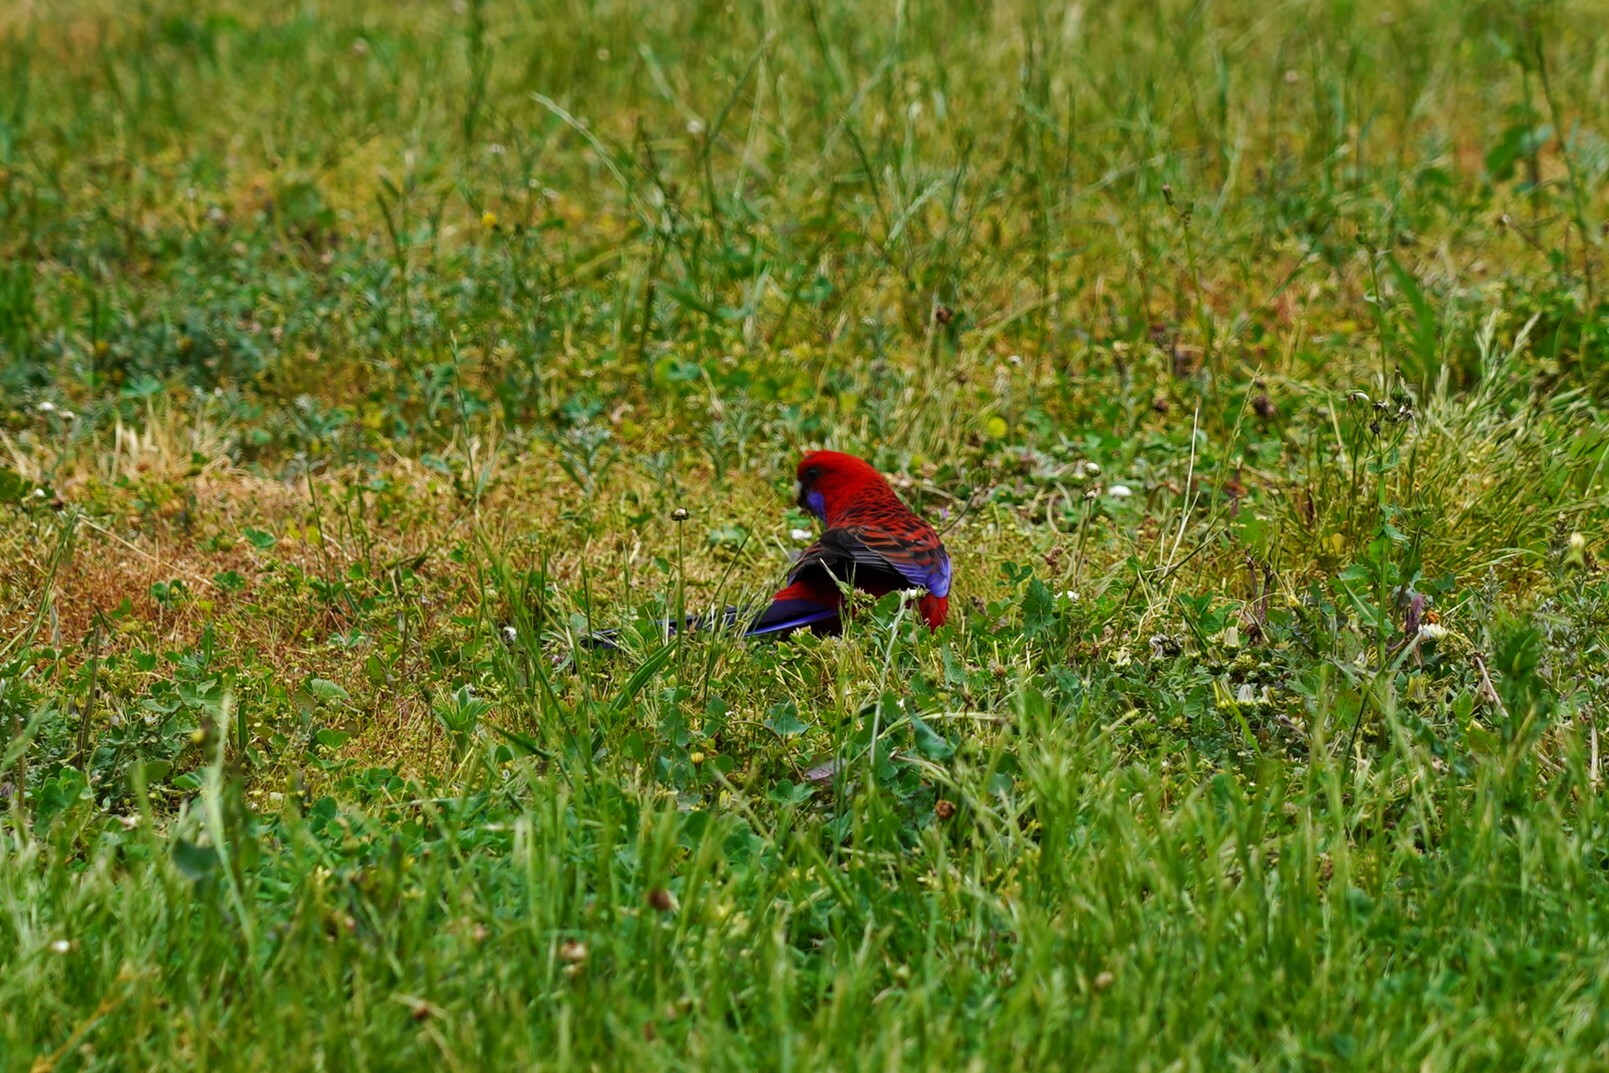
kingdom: Animalia
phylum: Chordata
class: Aves
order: Psittaciformes
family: Psittacidae
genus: Platycercus
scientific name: Platycercus elegans
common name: Crimson rosella
